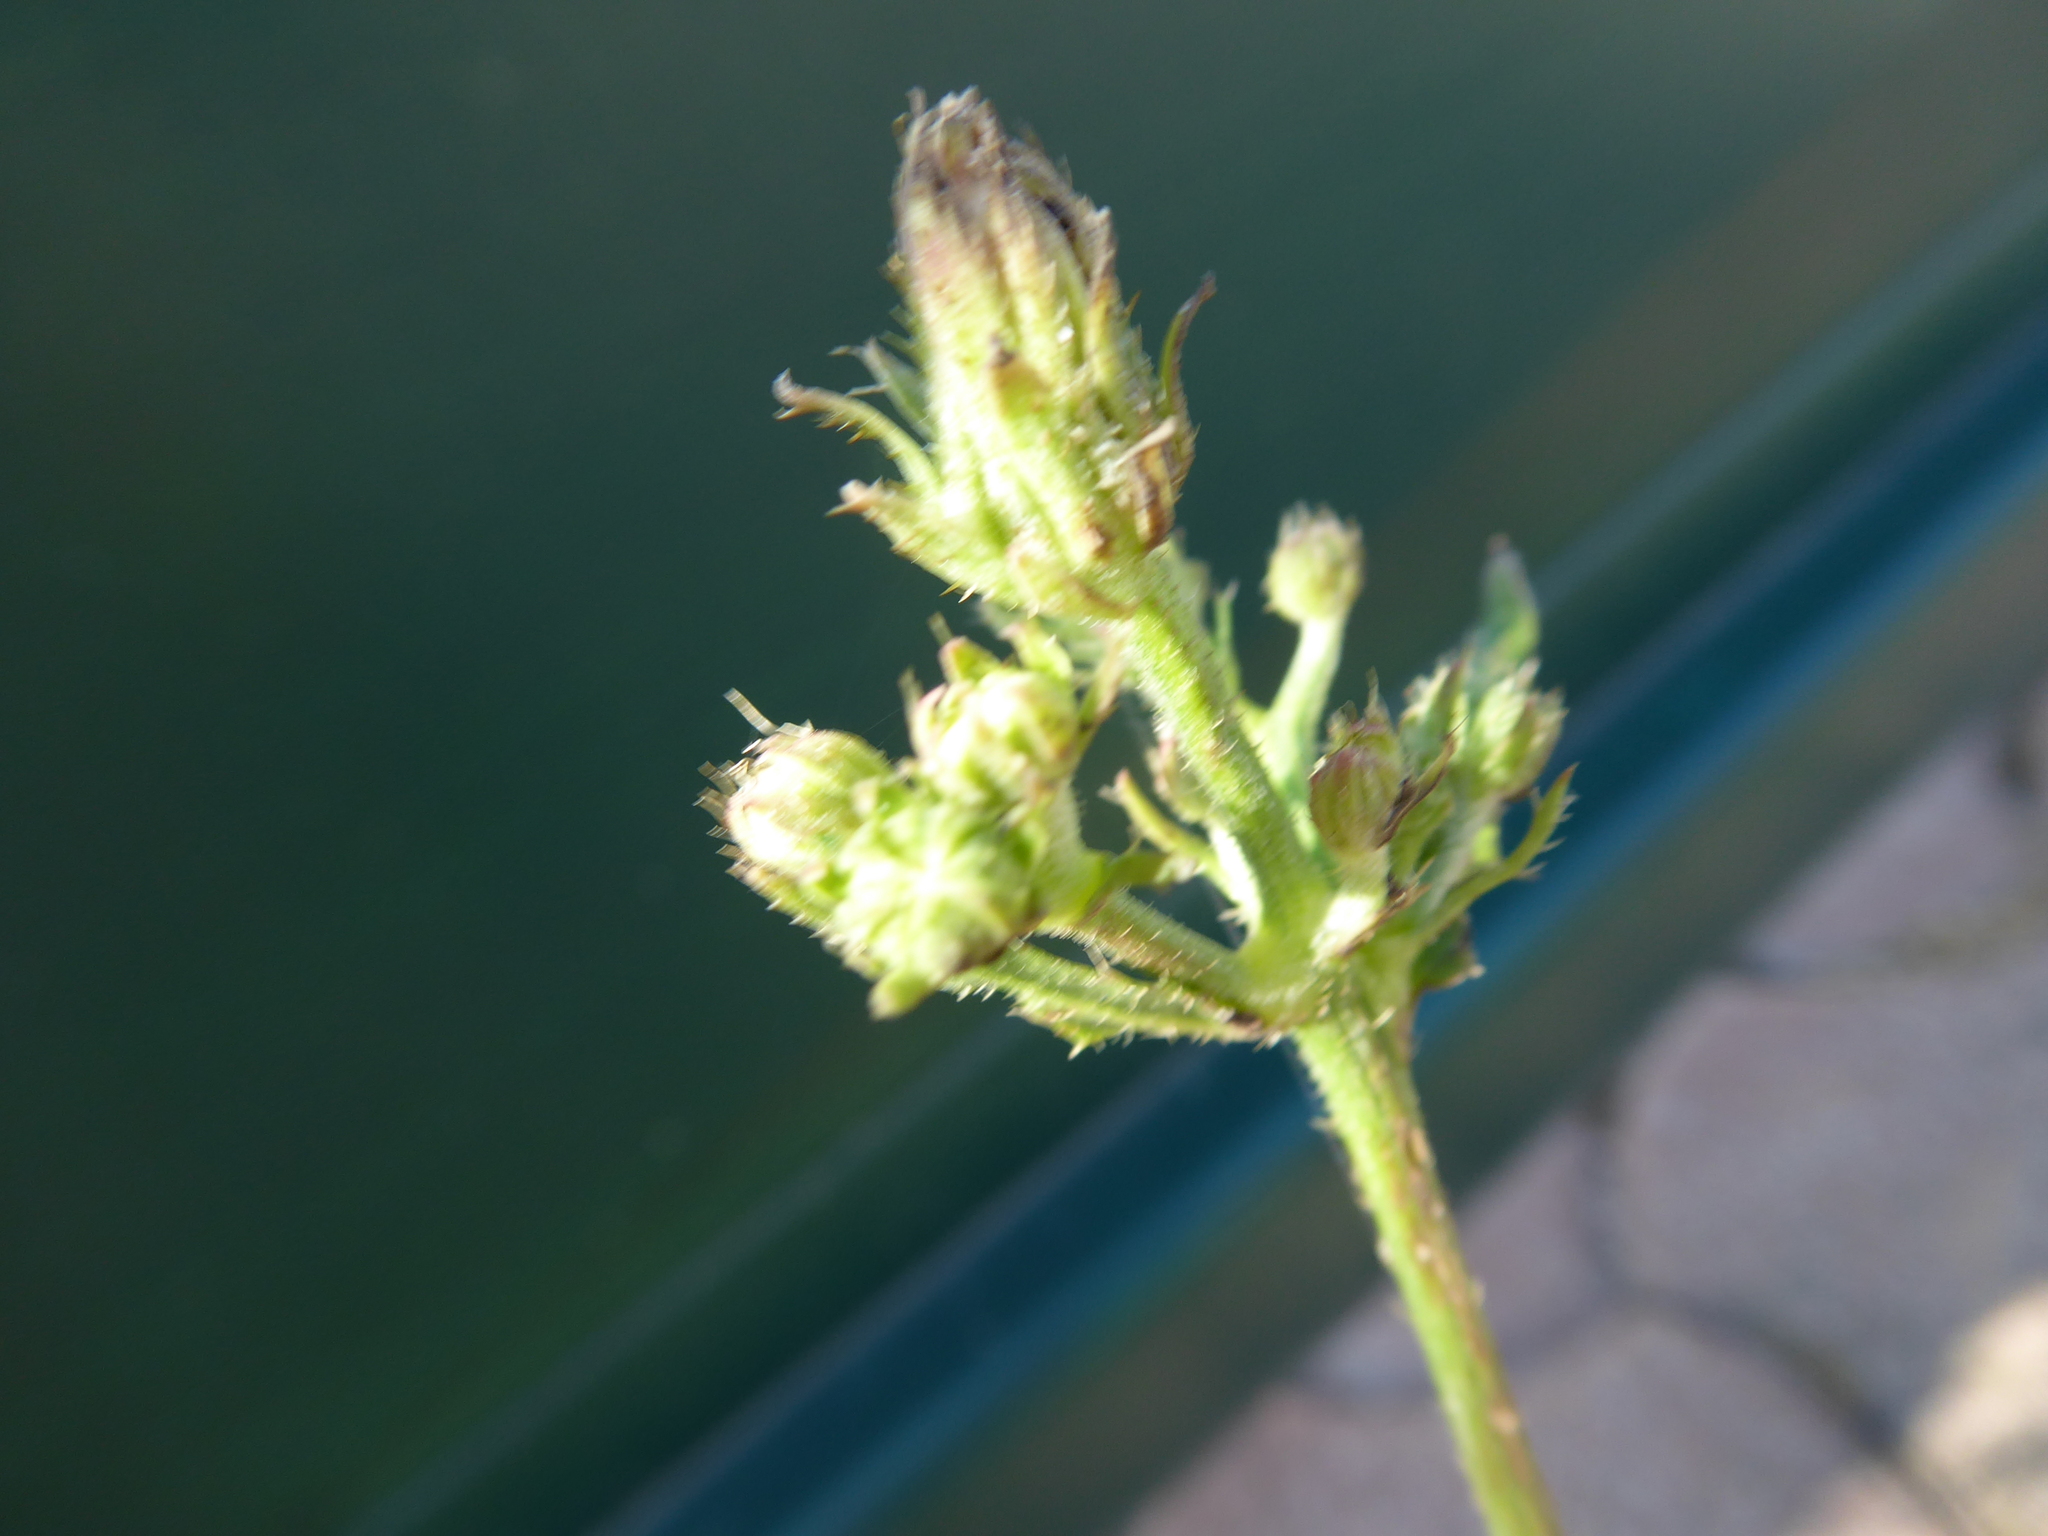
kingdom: Plantae
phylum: Tracheophyta
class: Magnoliopsida
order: Asterales
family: Asteraceae
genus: Picris
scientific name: Picris hieracioides
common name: Hawkweed oxtongue
